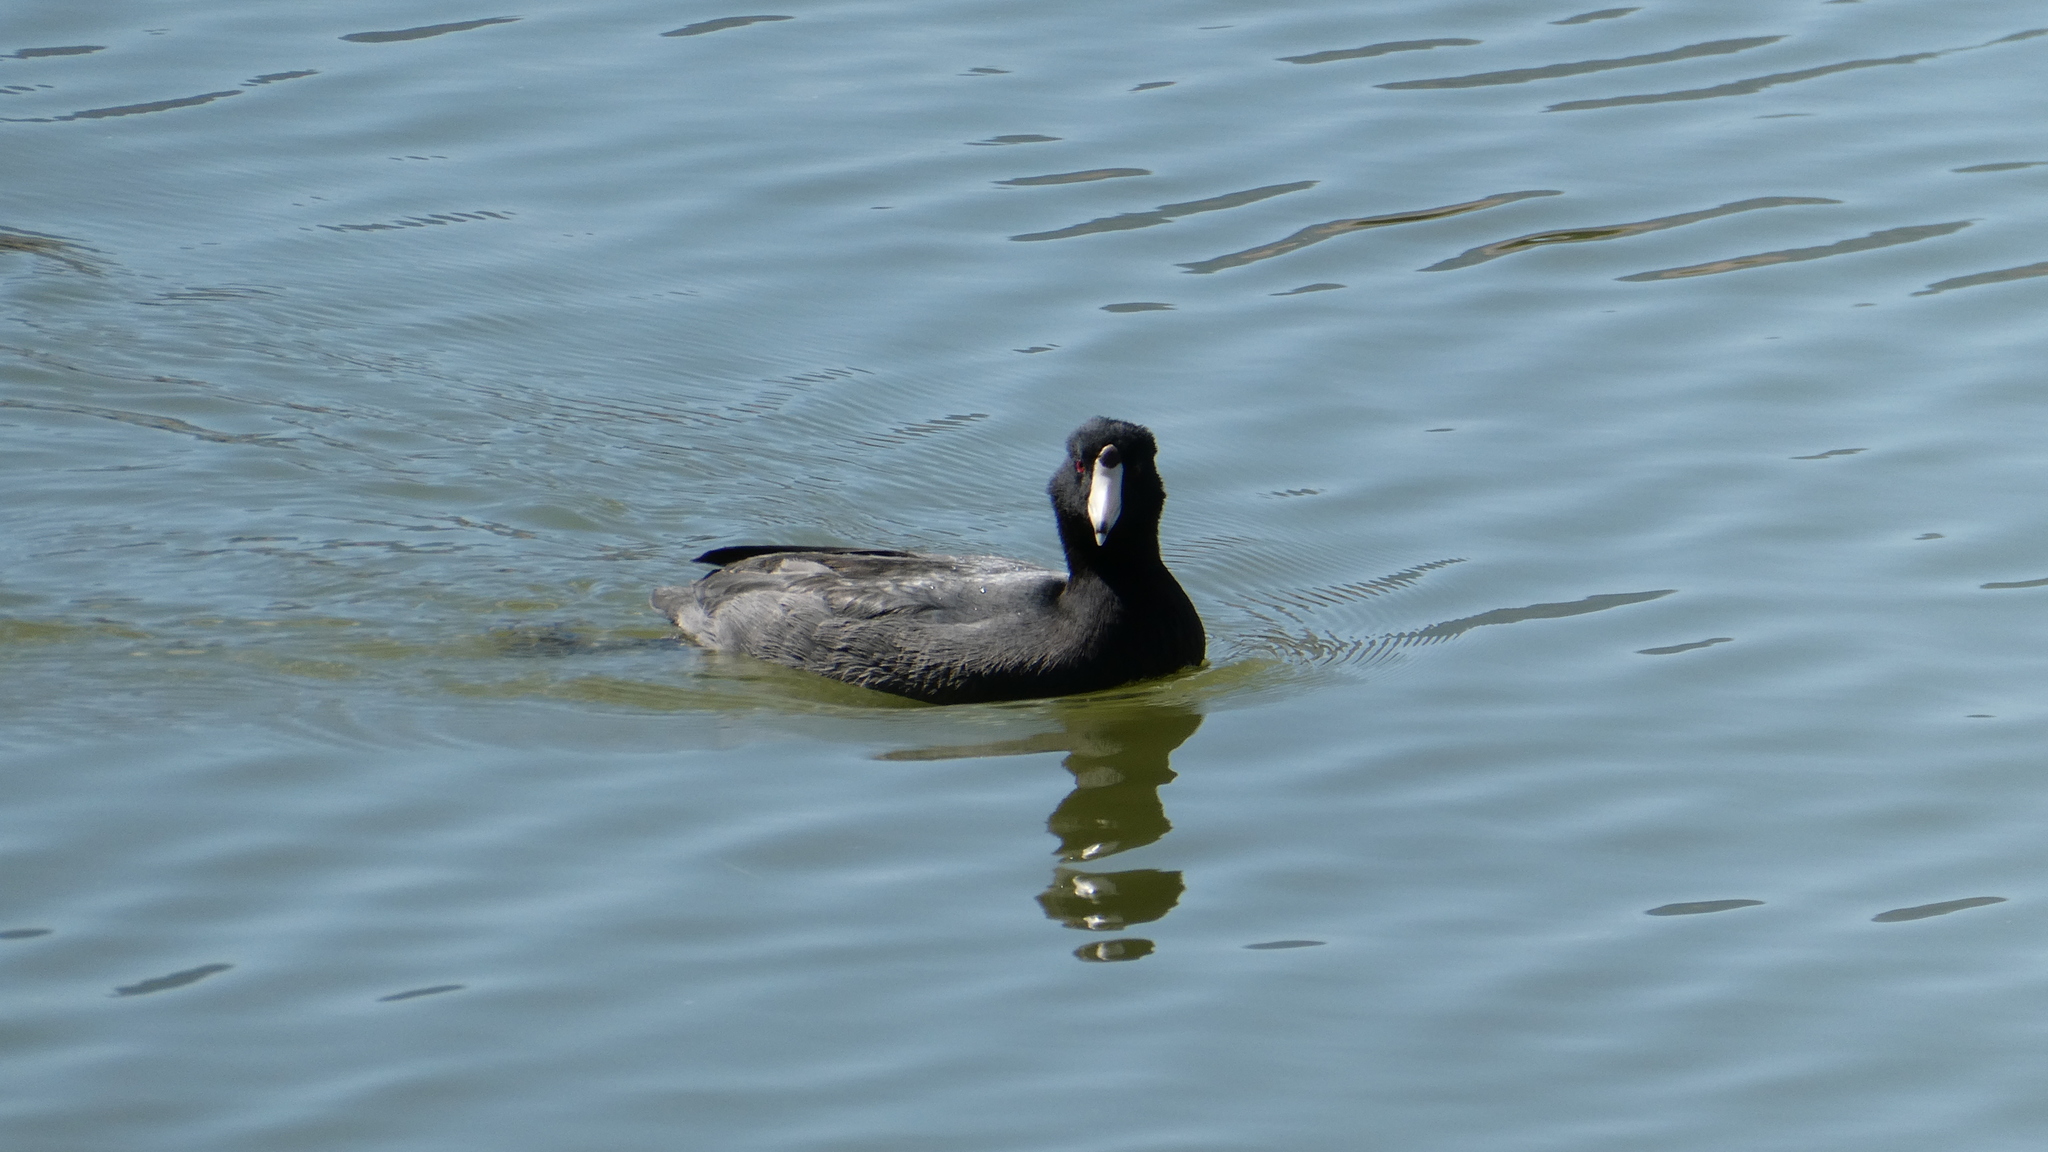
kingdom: Animalia
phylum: Chordata
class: Aves
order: Gruiformes
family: Rallidae
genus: Fulica
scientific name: Fulica americana
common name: American coot
